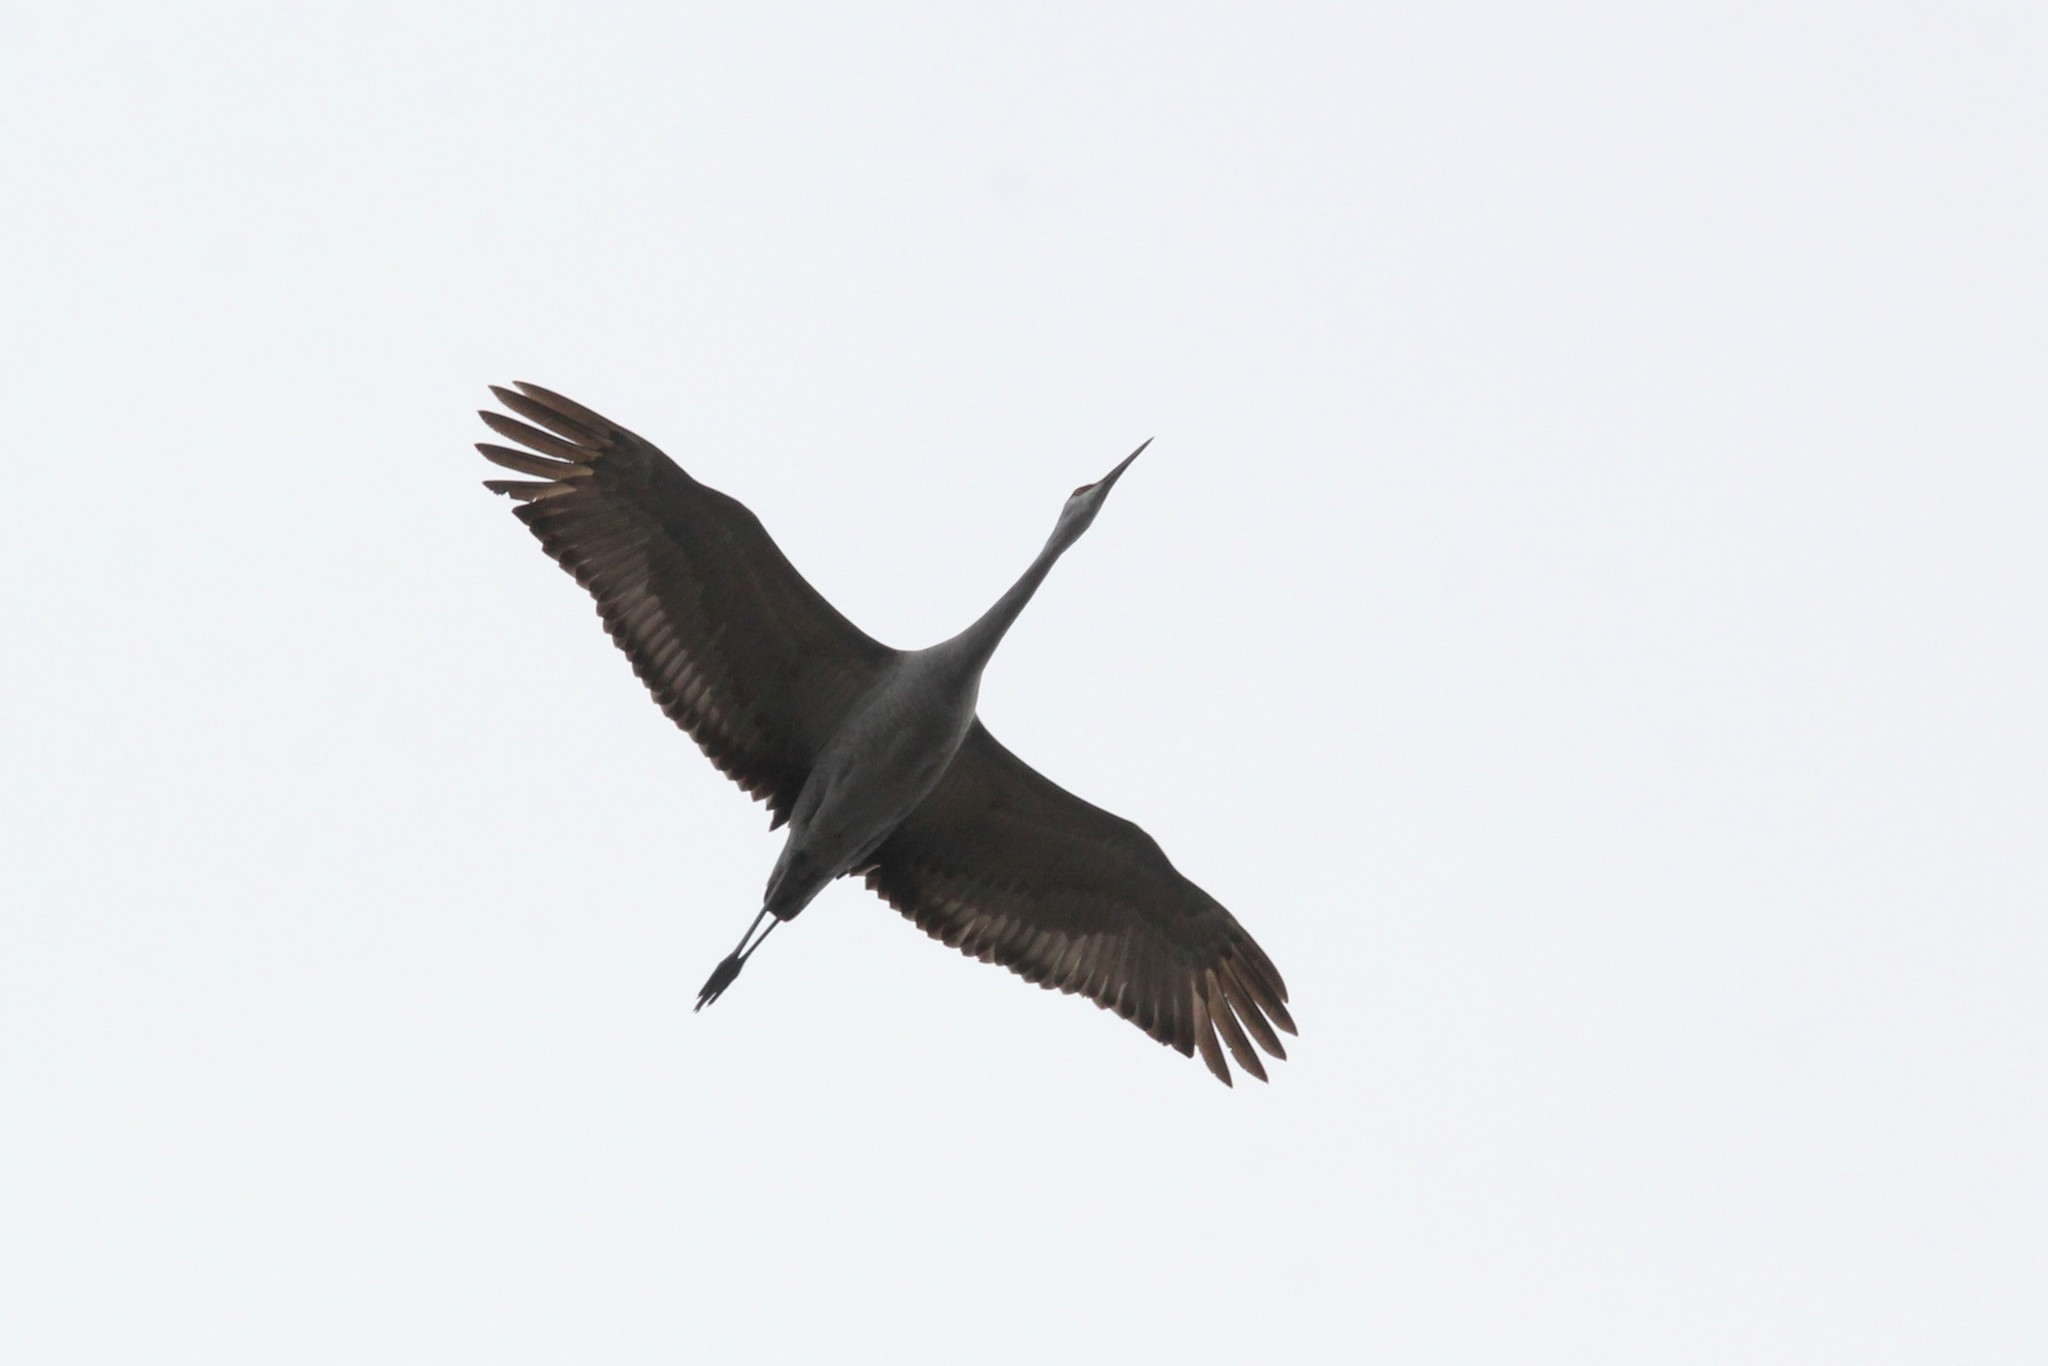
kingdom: Animalia
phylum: Chordata
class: Aves
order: Gruiformes
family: Gruidae
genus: Grus
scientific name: Grus canadensis
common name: Sandhill crane
